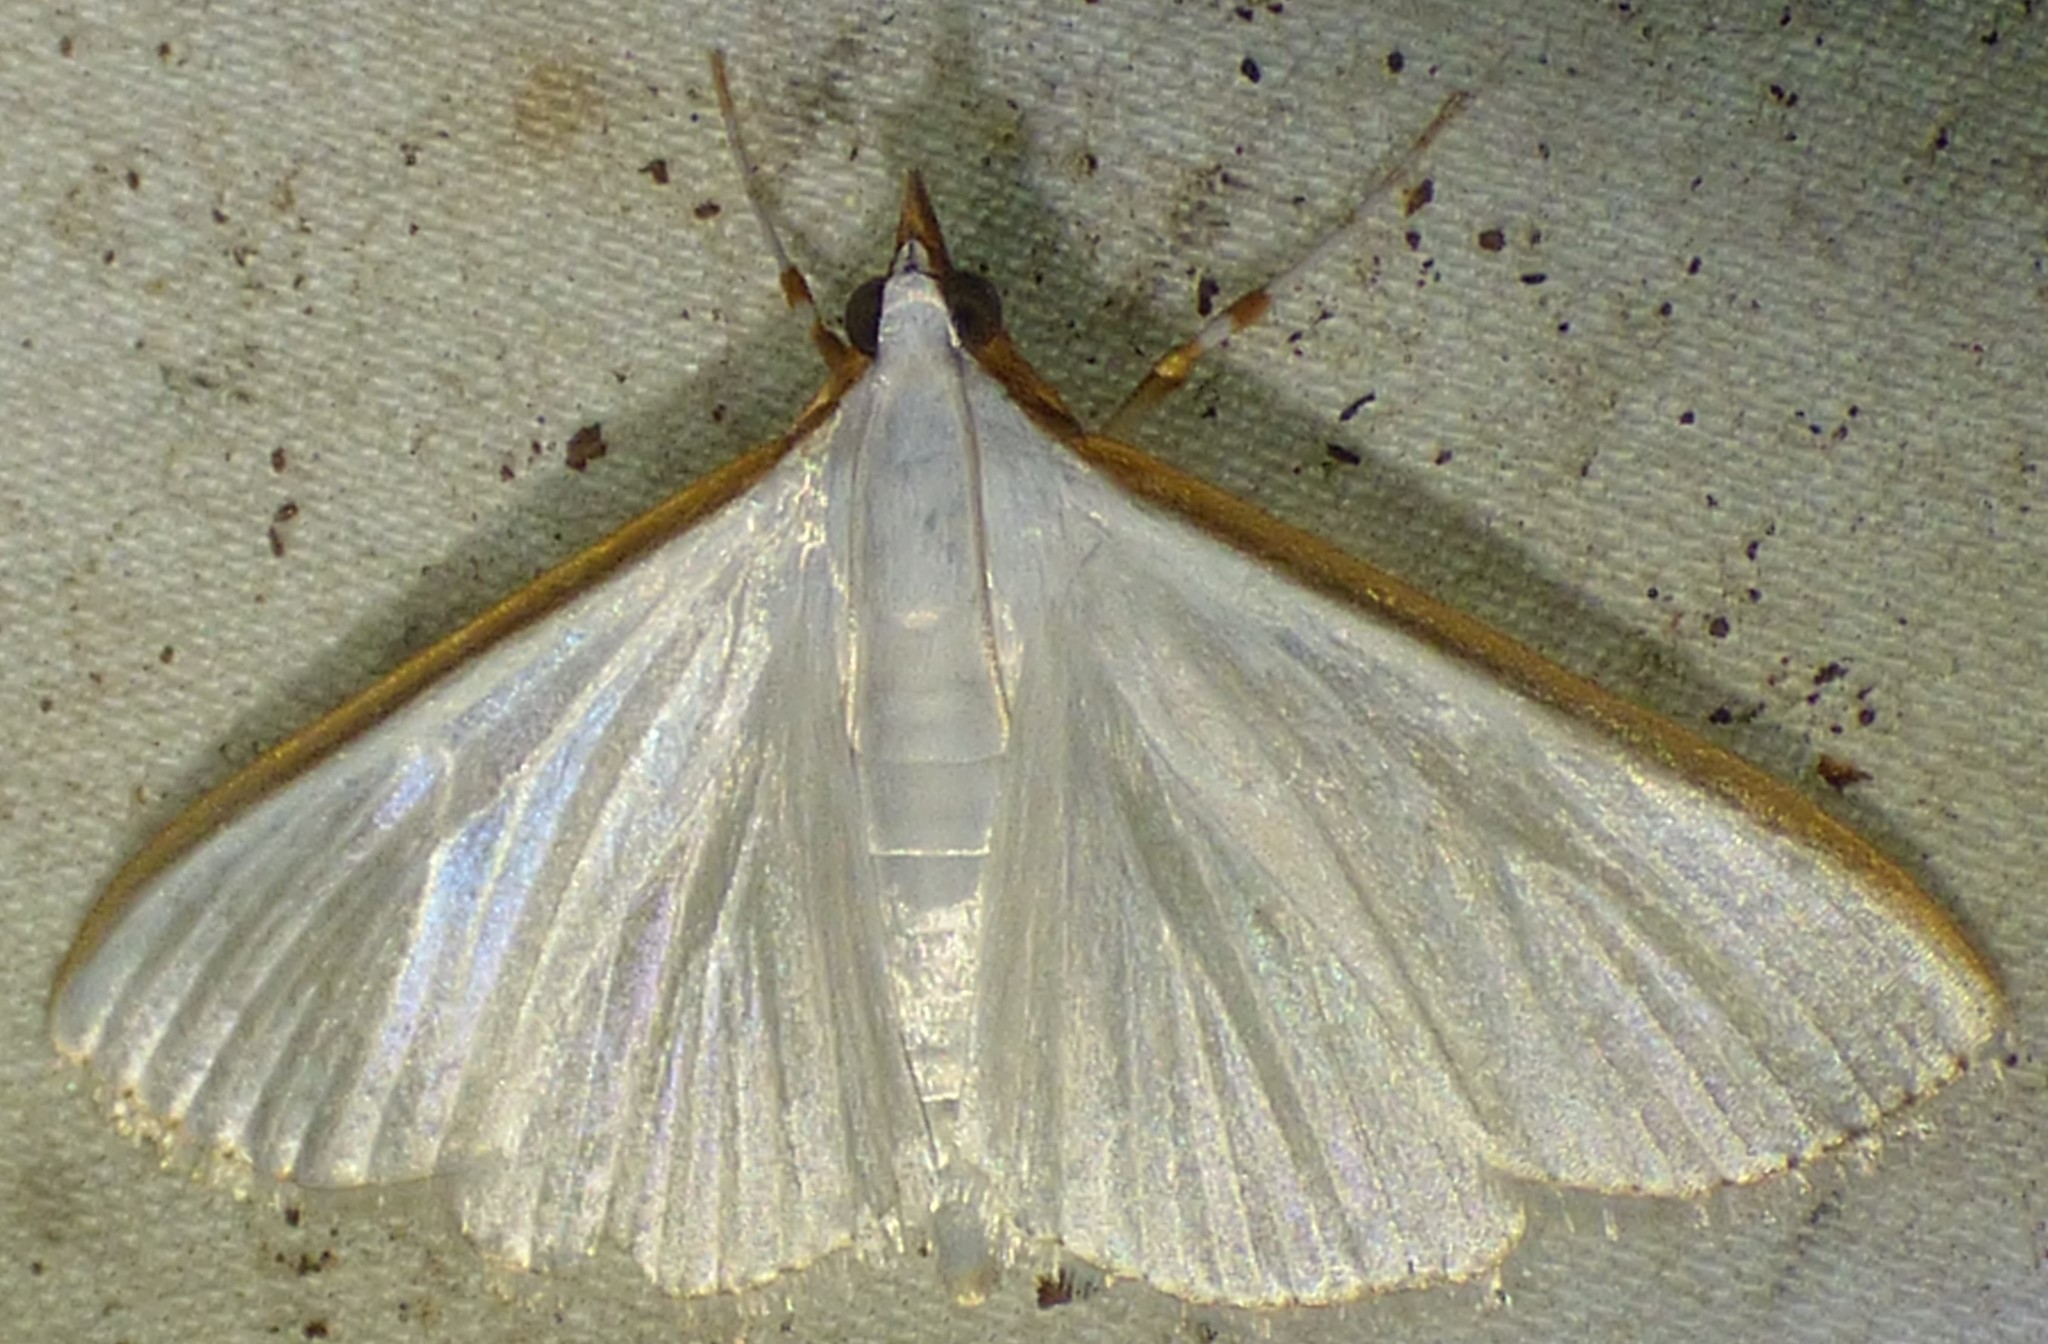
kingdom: Animalia
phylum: Arthropoda
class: Insecta
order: Lepidoptera
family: Crambidae
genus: Diaphania
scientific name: Diaphania costata
